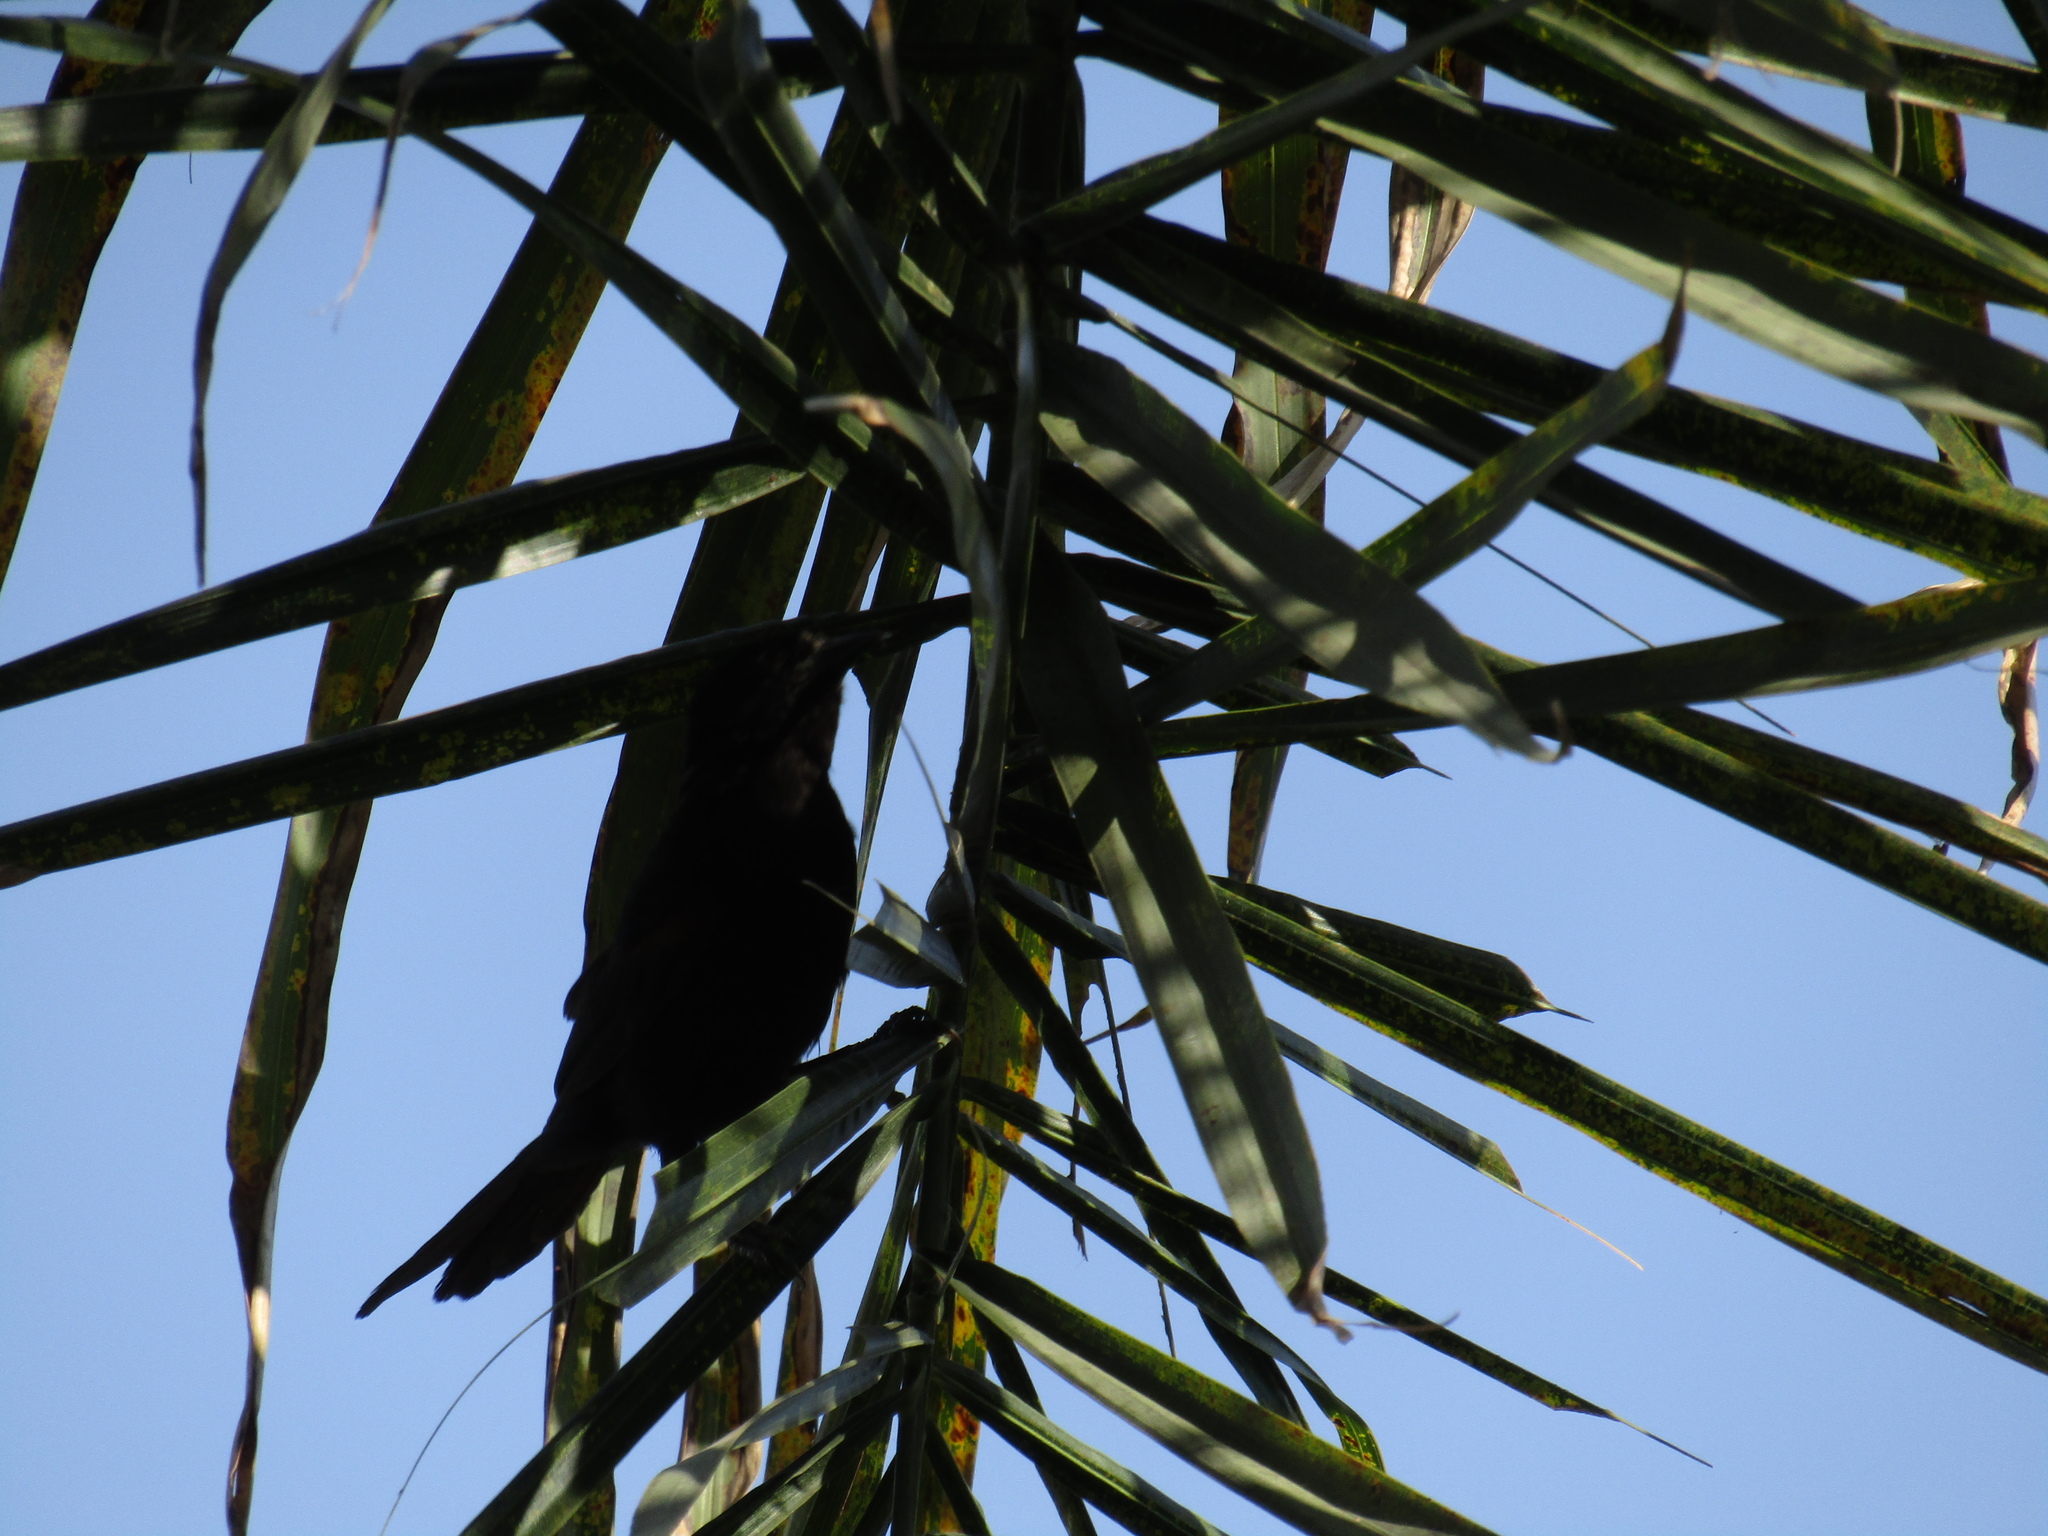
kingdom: Animalia
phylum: Chordata
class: Aves
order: Passeriformes
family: Icteridae
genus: Icterus
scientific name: Icterus cayanensis
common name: Epaulet oriole
